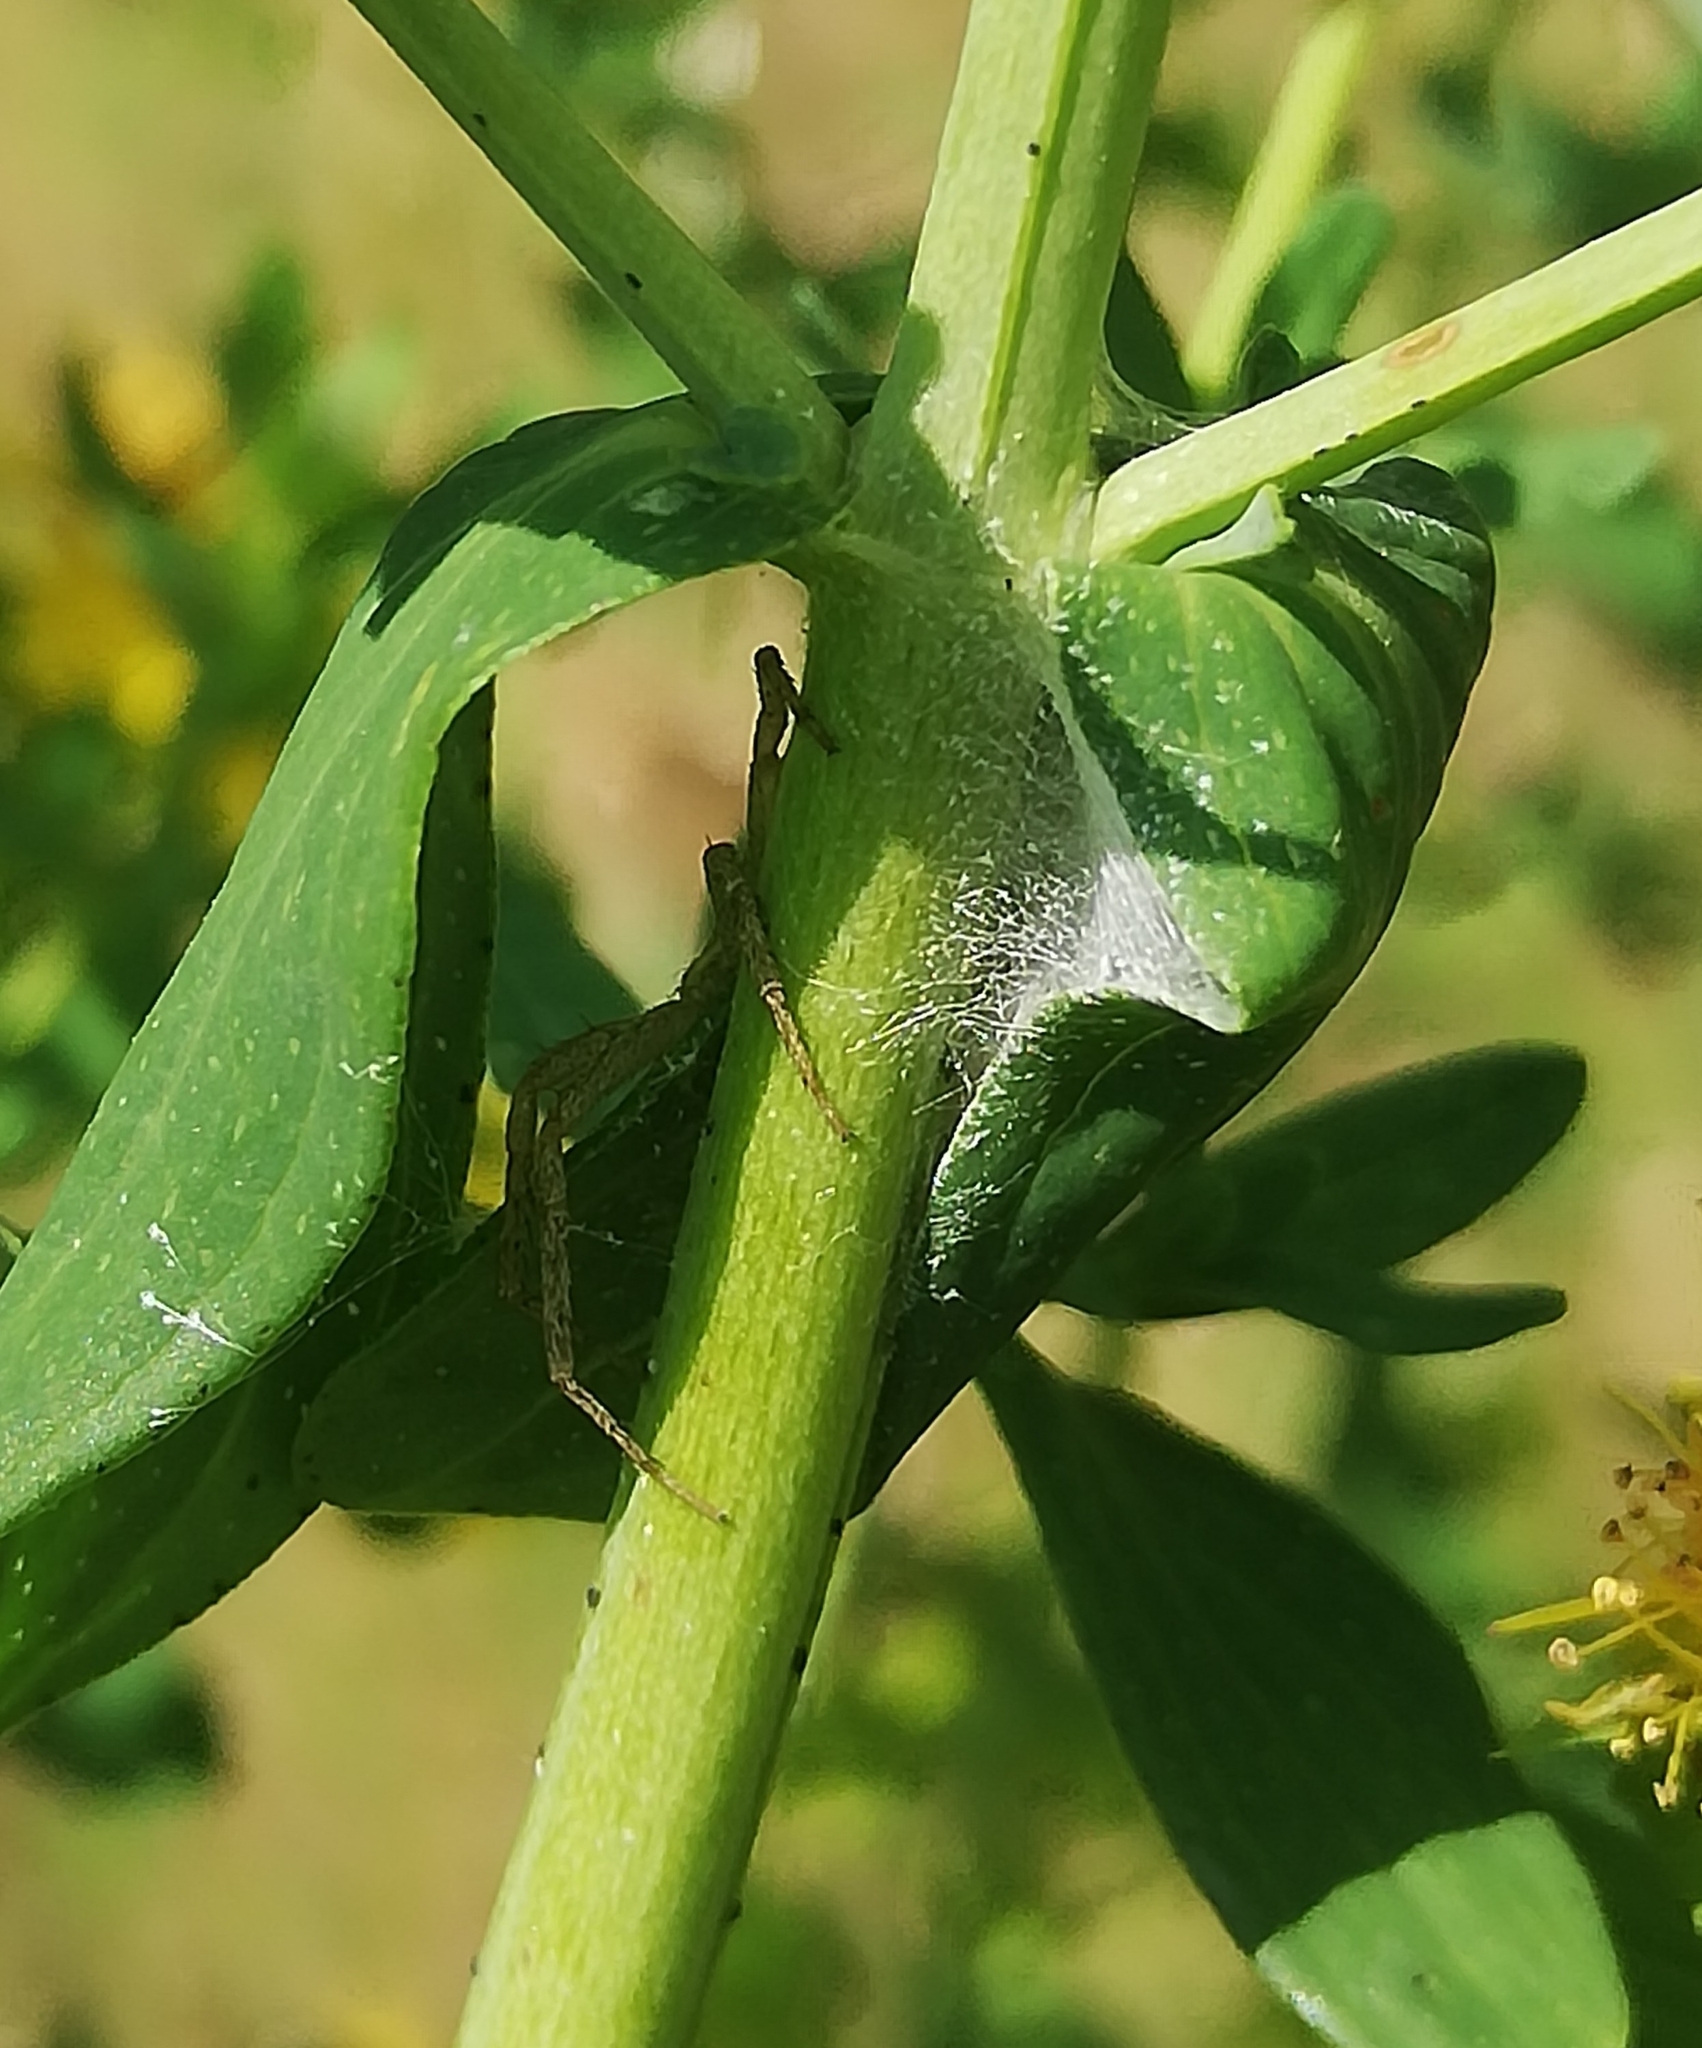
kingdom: Animalia
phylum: Arthropoda
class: Arachnida
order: Araneae
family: Philodromidae
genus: Philodromus
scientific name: Philodromus dispar
